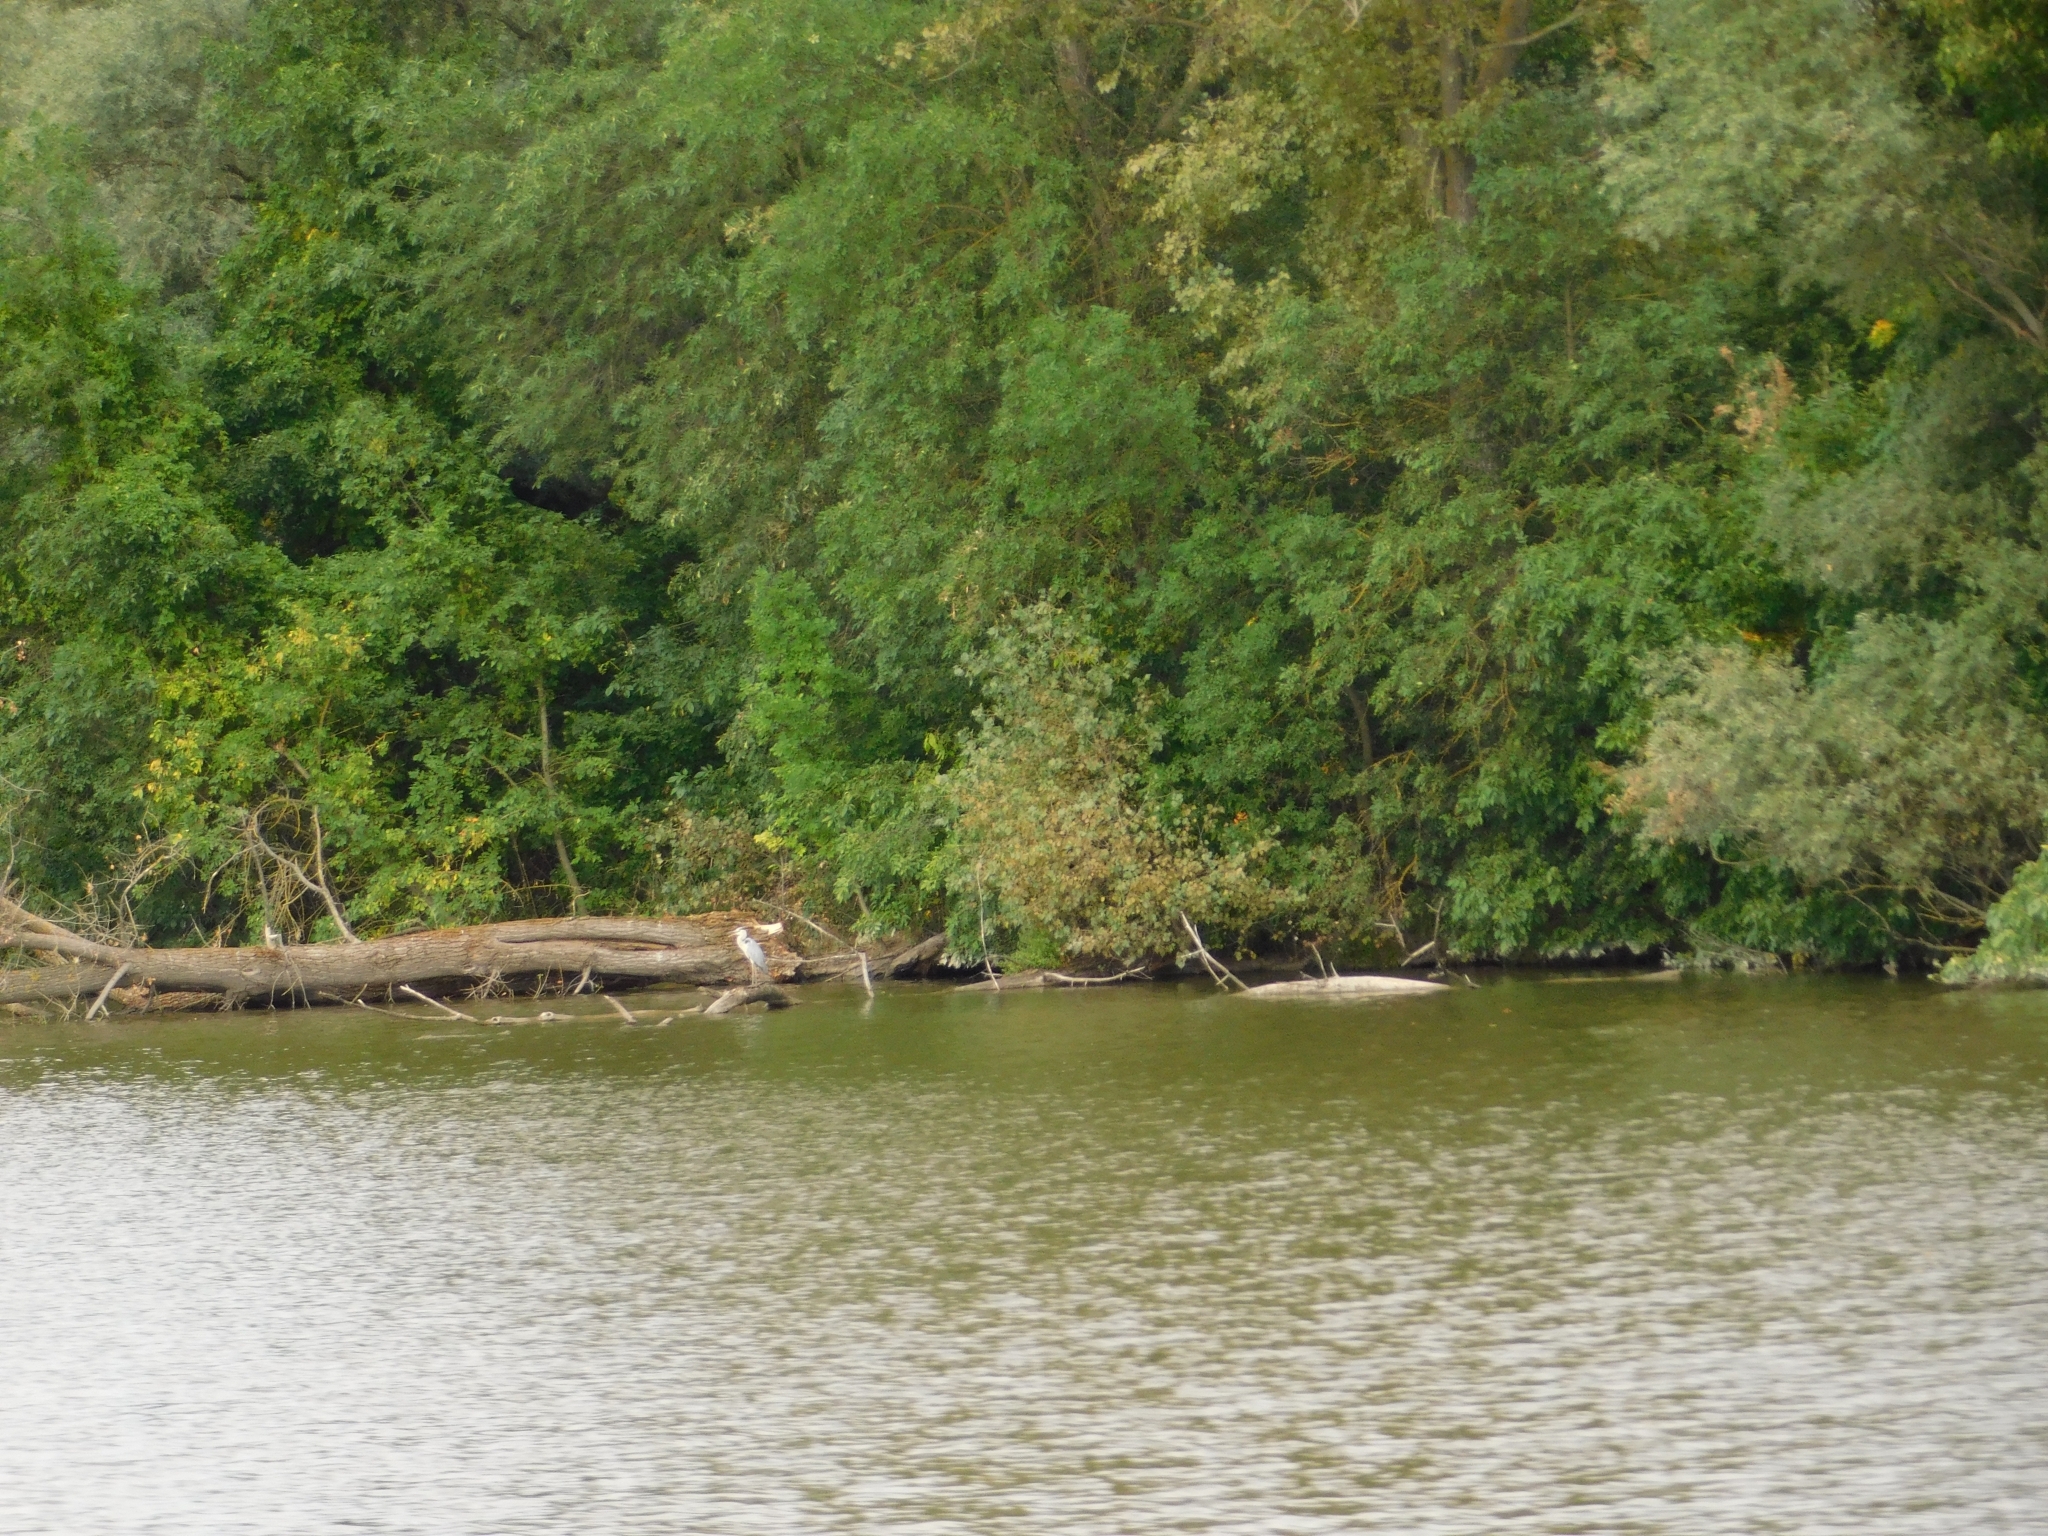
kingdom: Animalia
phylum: Chordata
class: Aves
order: Pelecaniformes
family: Ardeidae
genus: Ardea
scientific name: Ardea cinerea
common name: Grey heron
